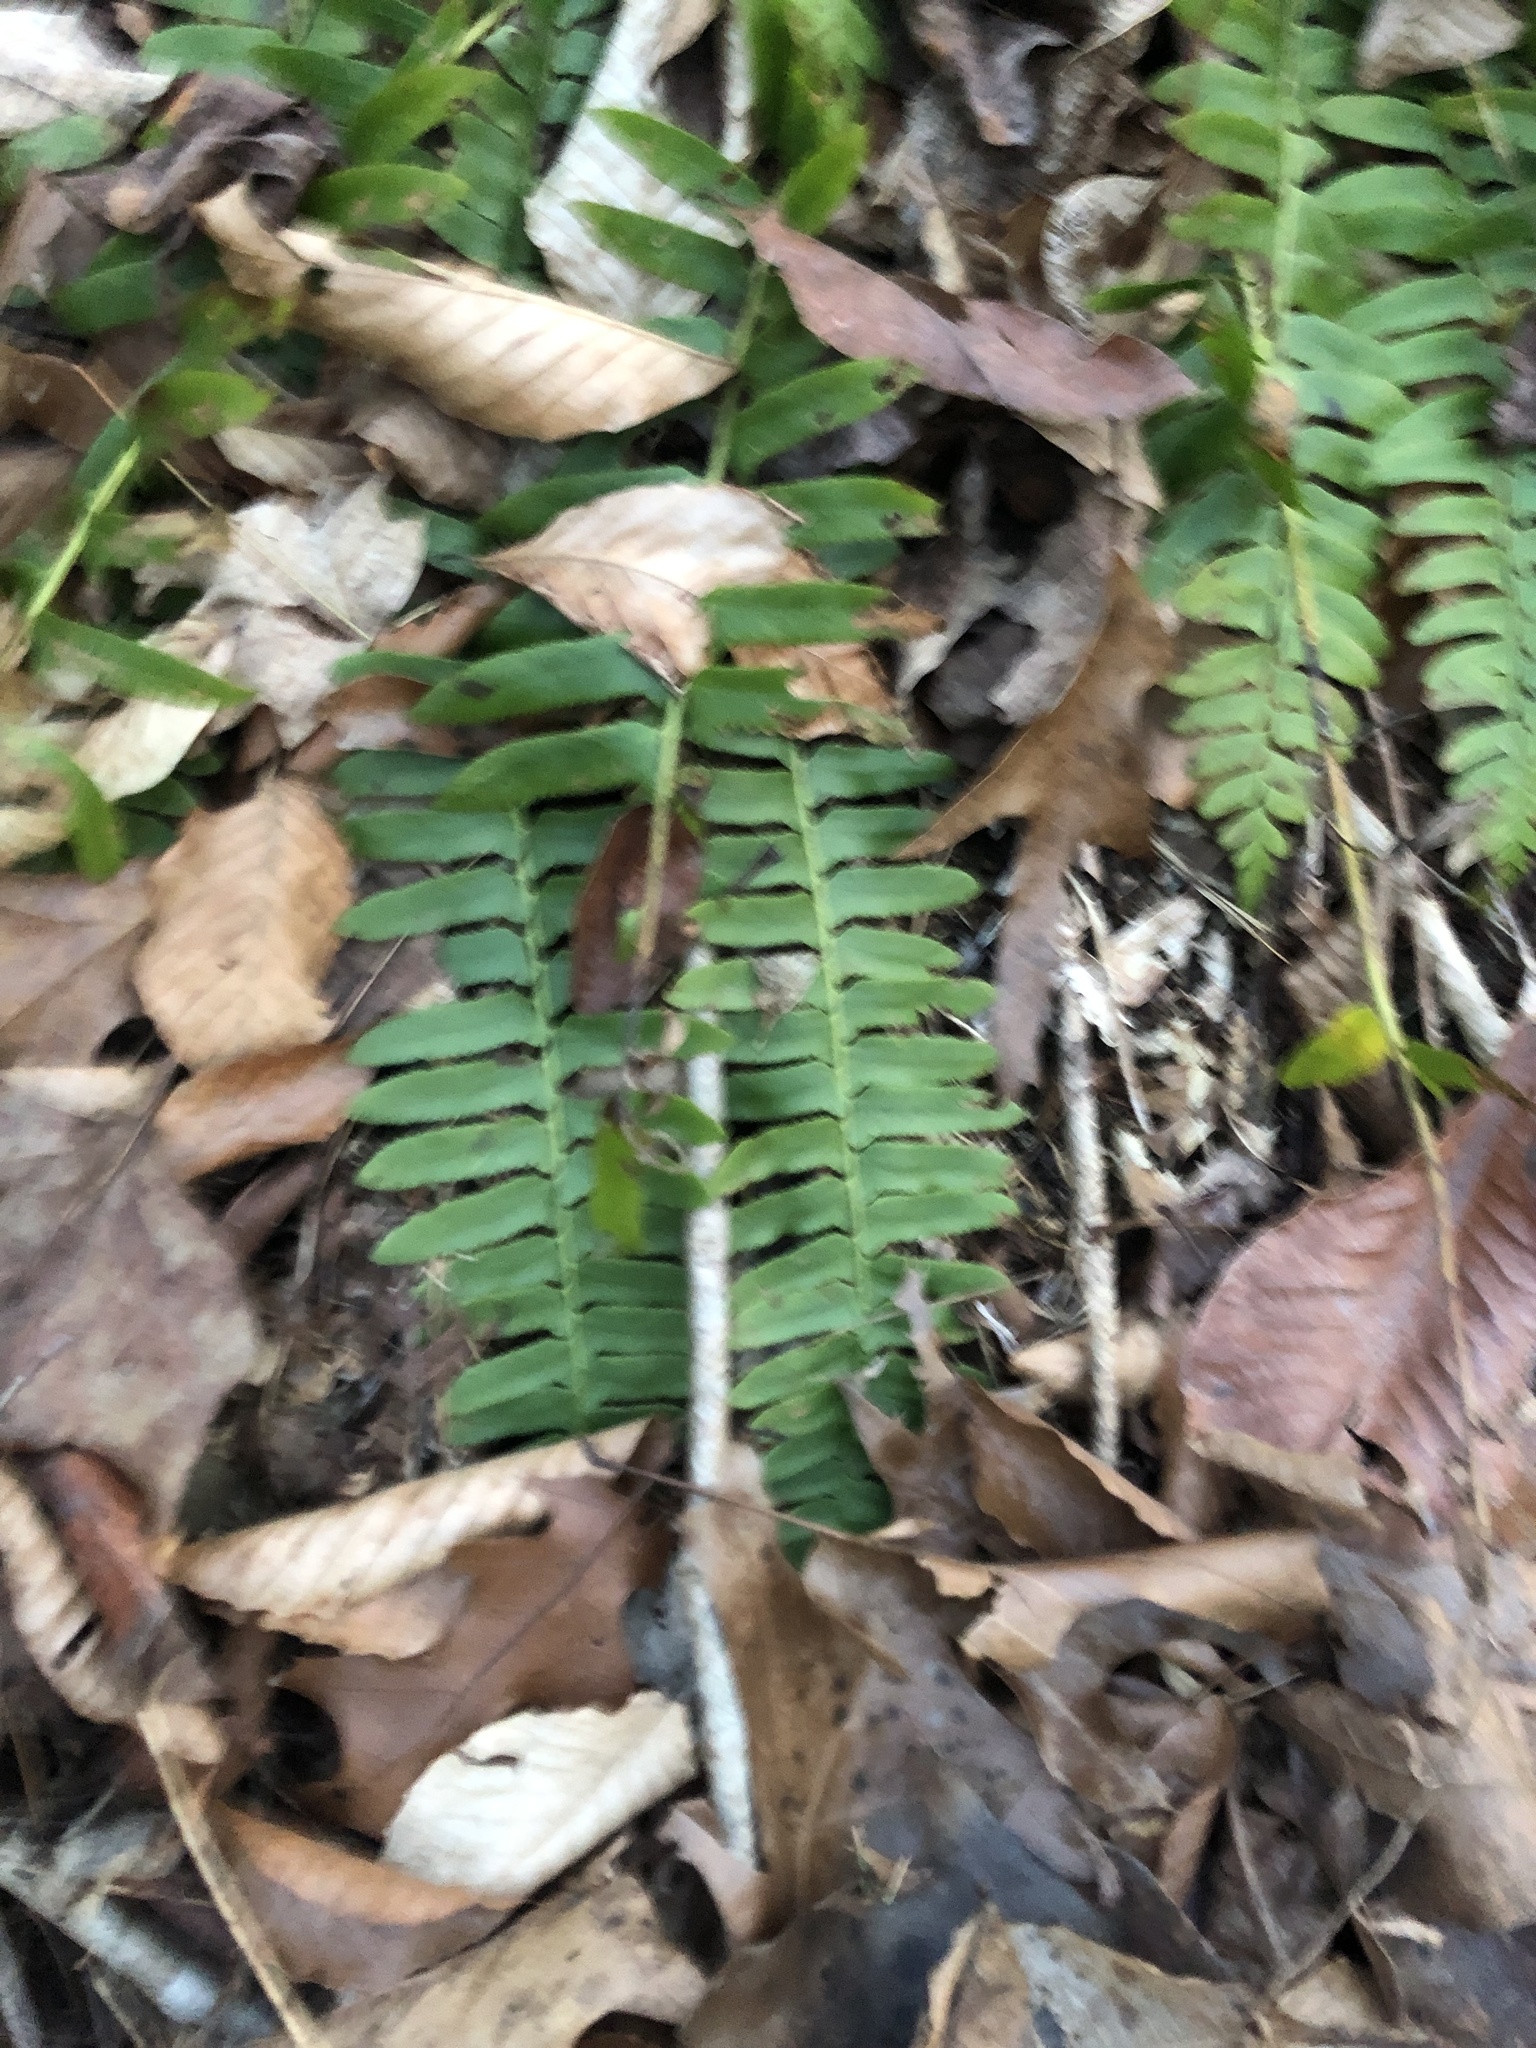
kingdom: Plantae
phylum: Tracheophyta
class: Polypodiopsida
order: Polypodiales
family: Dryopteridaceae
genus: Polystichum
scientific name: Polystichum acrostichoides
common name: Christmas fern
